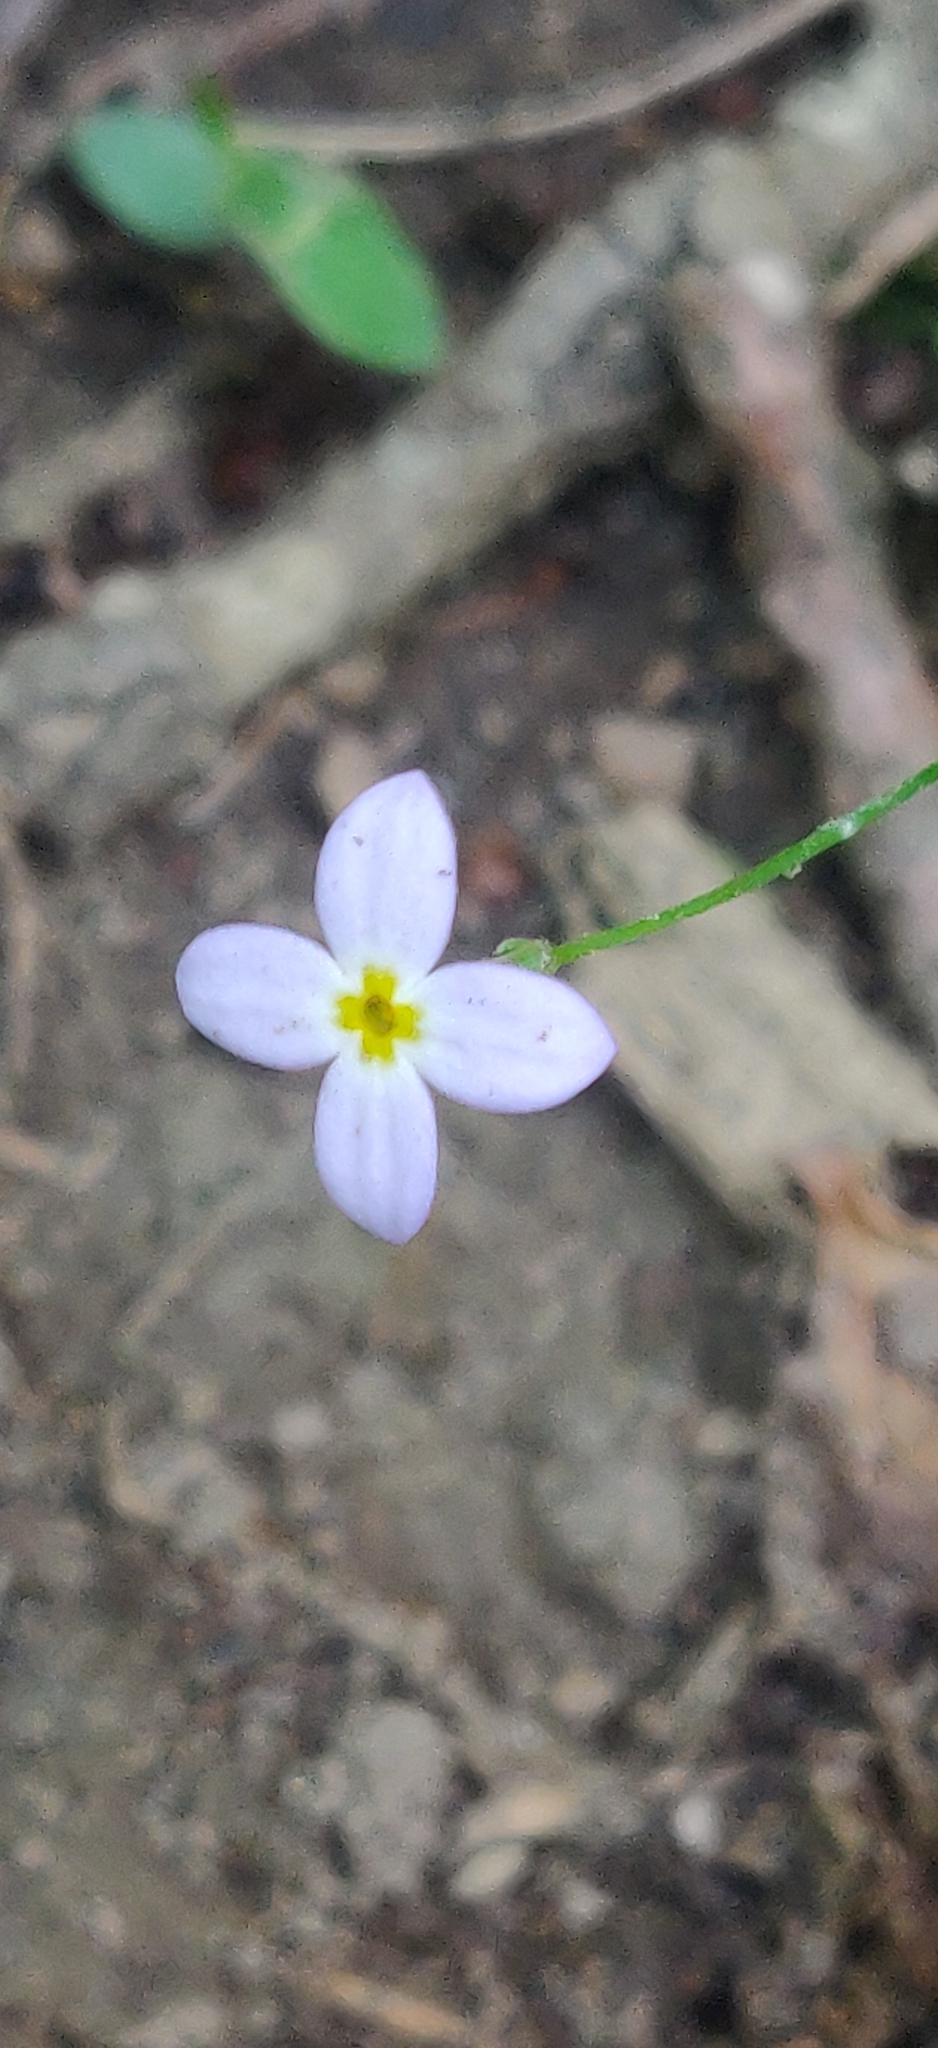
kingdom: Plantae
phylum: Tracheophyta
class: Magnoliopsida
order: Gentianales
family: Rubiaceae
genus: Houstonia
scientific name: Houstonia caerulea
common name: Bluets
